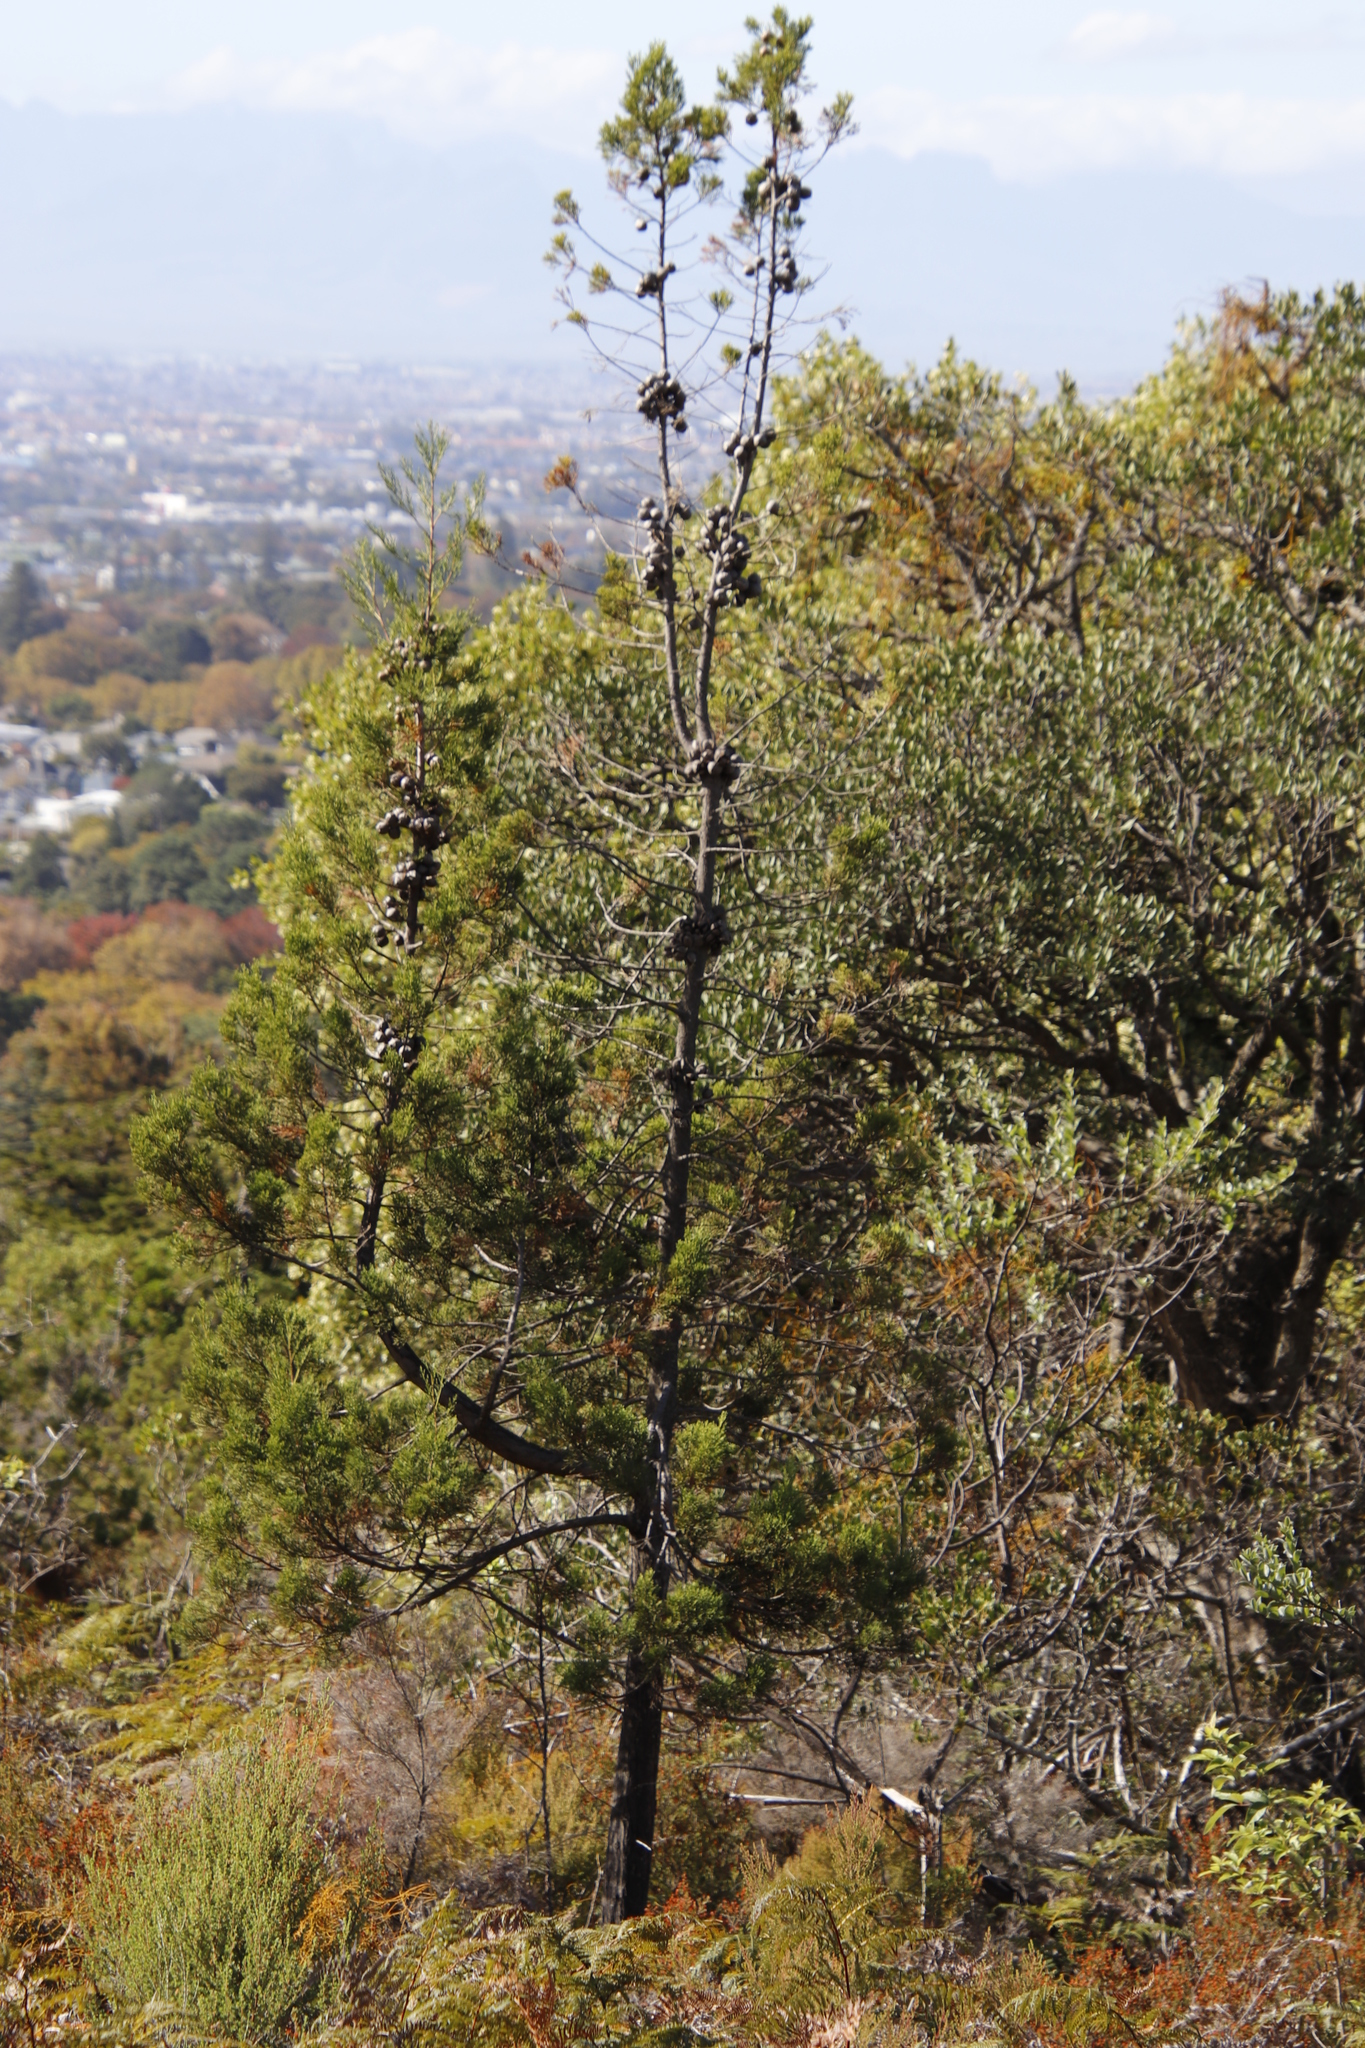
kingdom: Plantae
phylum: Tracheophyta
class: Pinopsida
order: Pinales
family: Cupressaceae
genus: Widdringtonia
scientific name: Widdringtonia nodiflora
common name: Cape cypress
